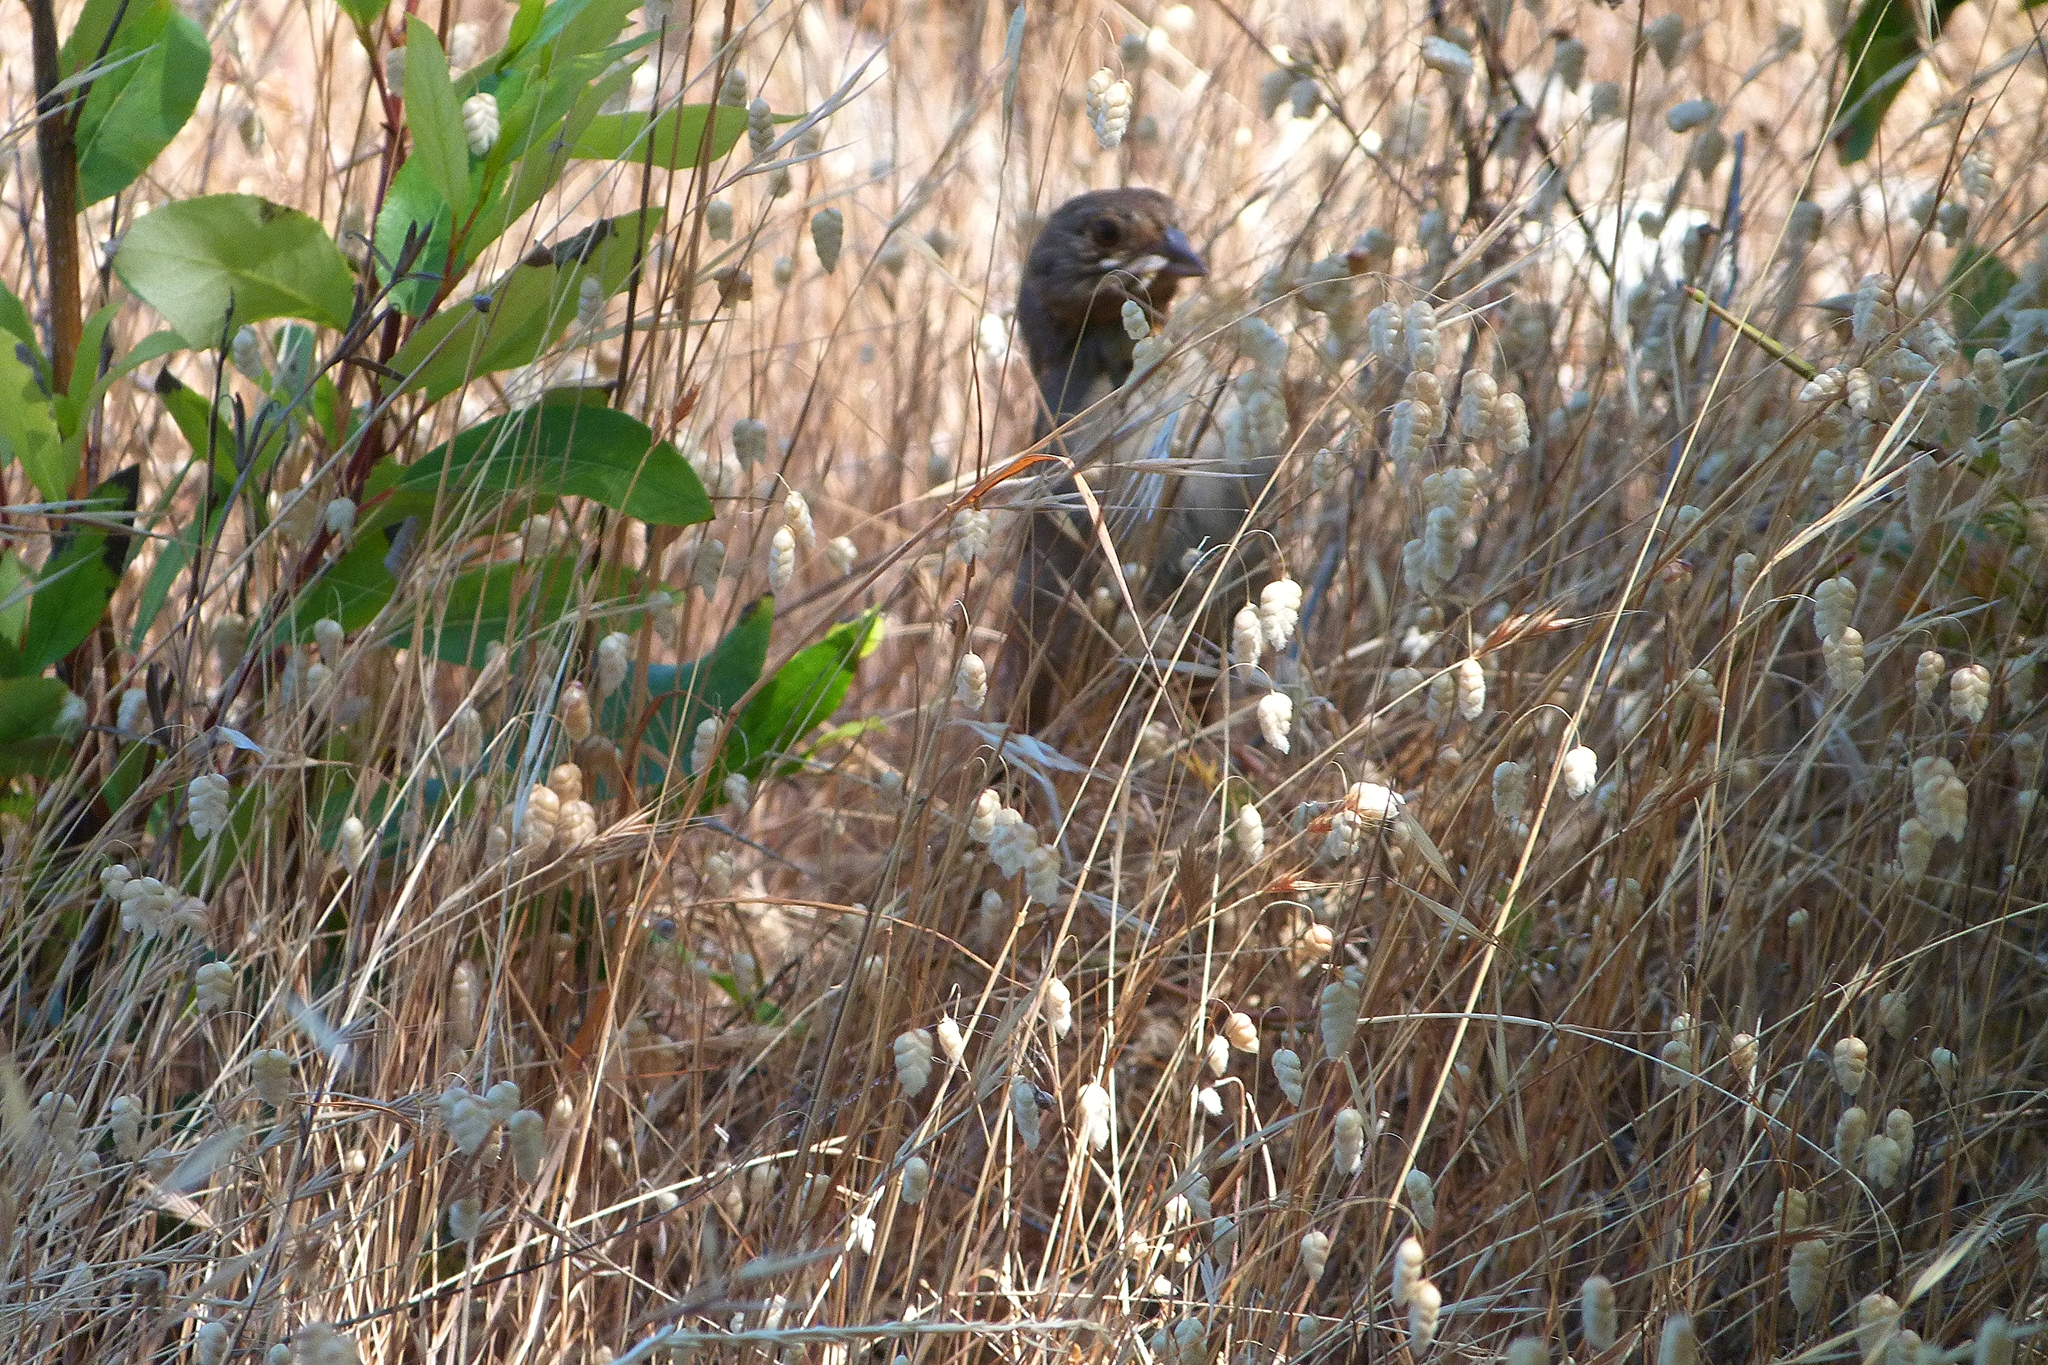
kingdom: Animalia
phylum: Chordata
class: Aves
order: Passeriformes
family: Passerellidae
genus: Melozone
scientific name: Melozone crissalis
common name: California towhee
